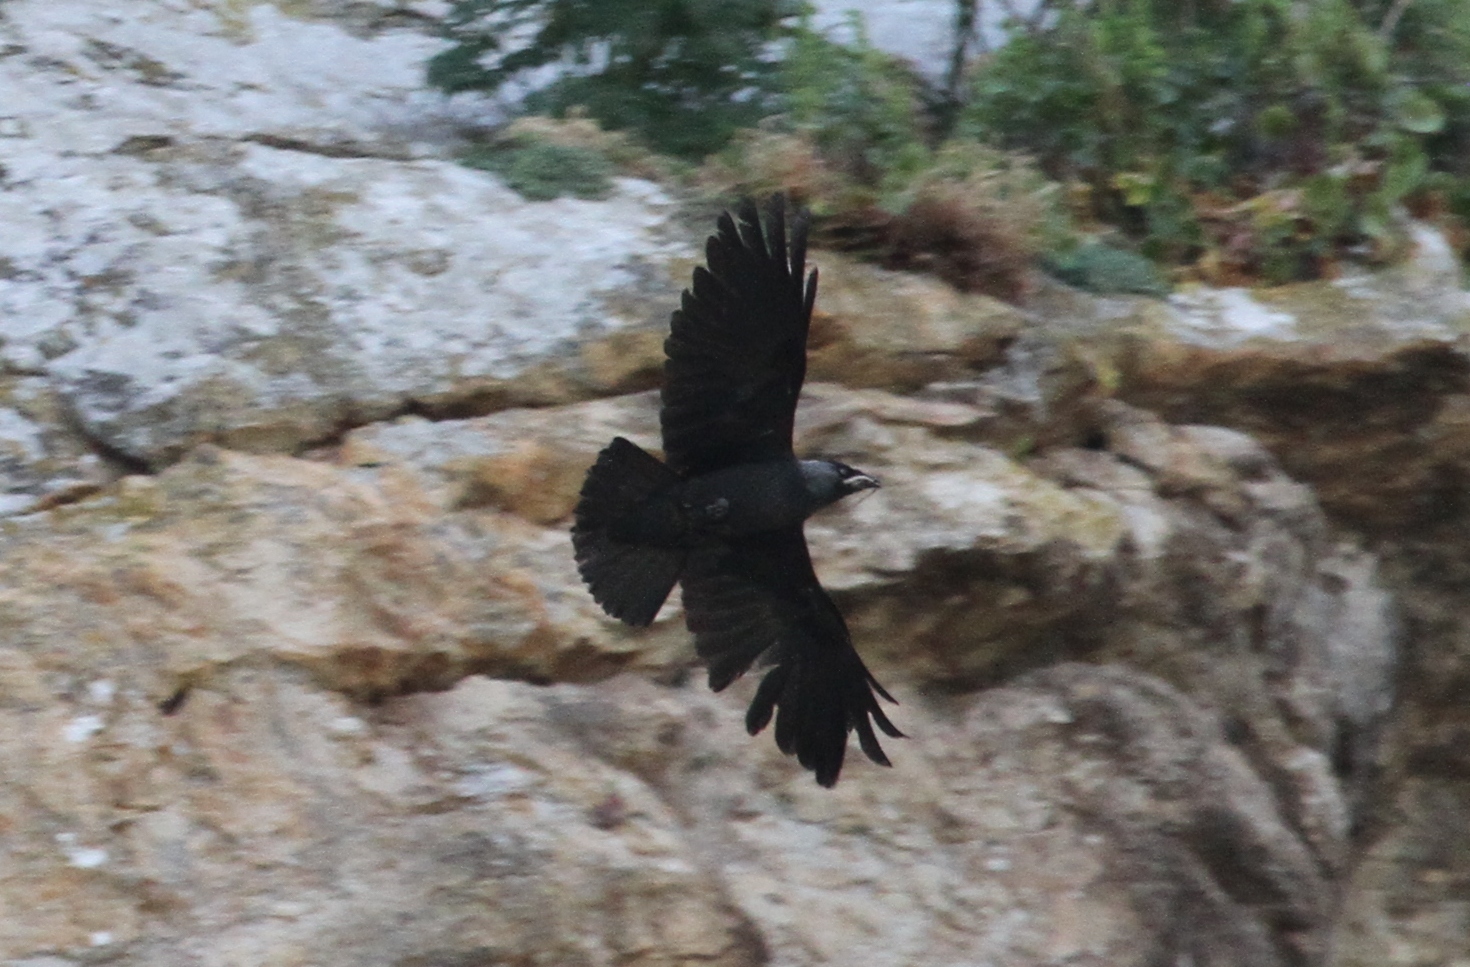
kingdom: Animalia
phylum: Chordata
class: Aves
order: Passeriformes
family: Corvidae
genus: Coloeus
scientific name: Coloeus monedula
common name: Western jackdaw
